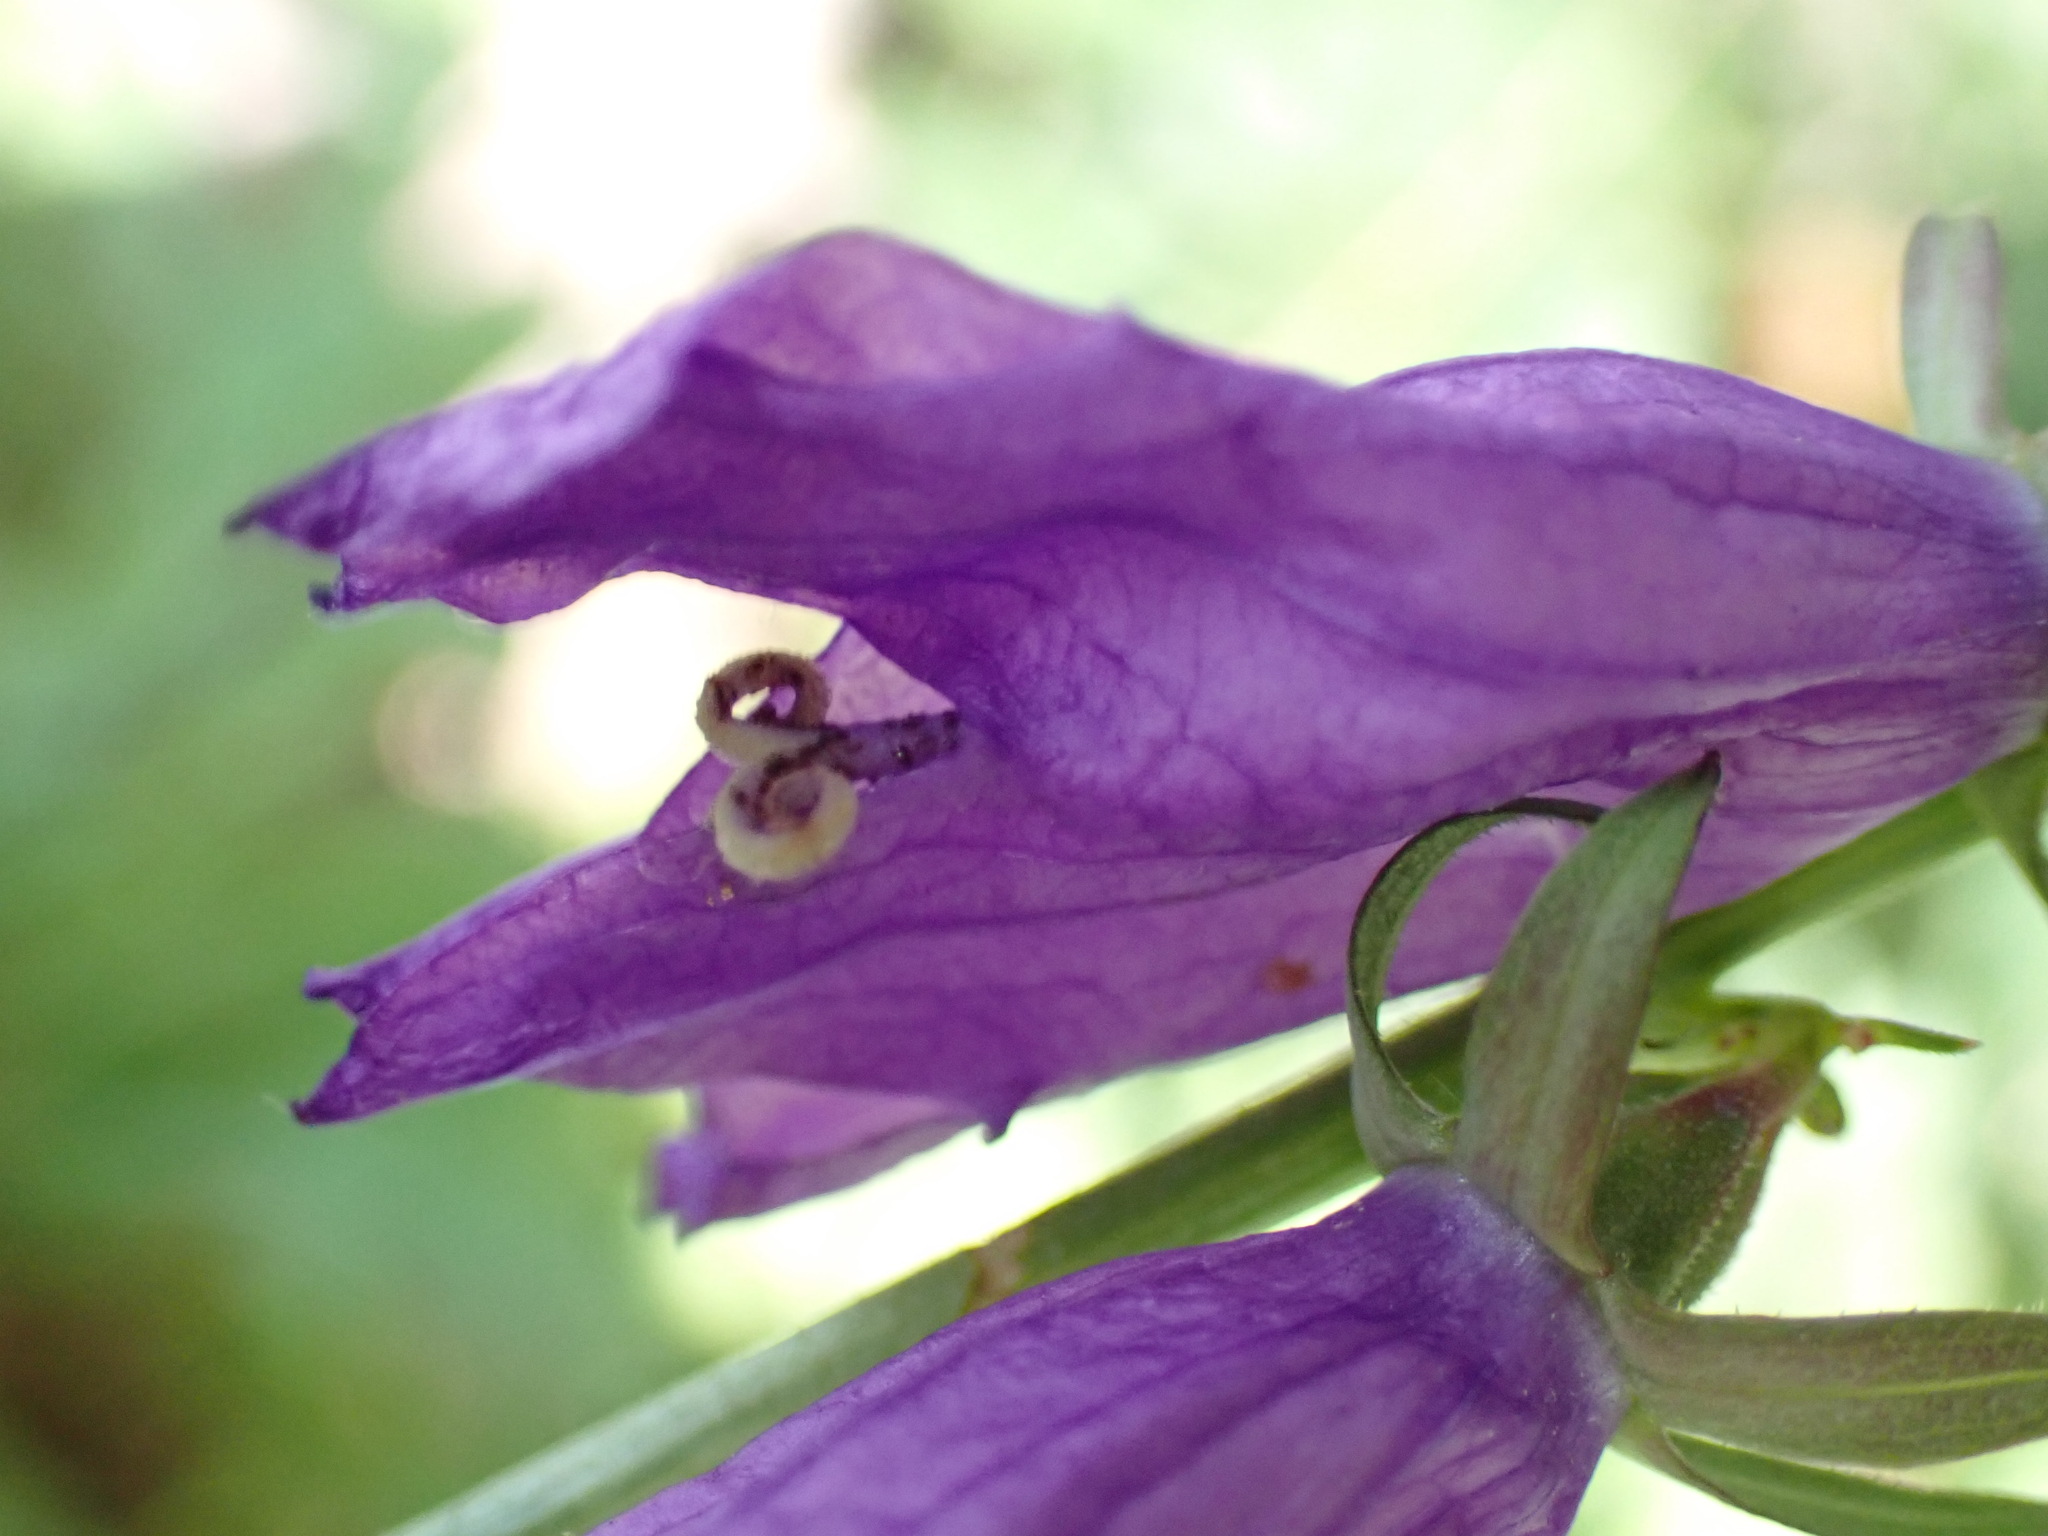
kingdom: Plantae
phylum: Tracheophyta
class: Magnoliopsida
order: Asterales
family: Campanulaceae
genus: Campanula
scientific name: Campanula rapunculoides
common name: Creeping bellflower
